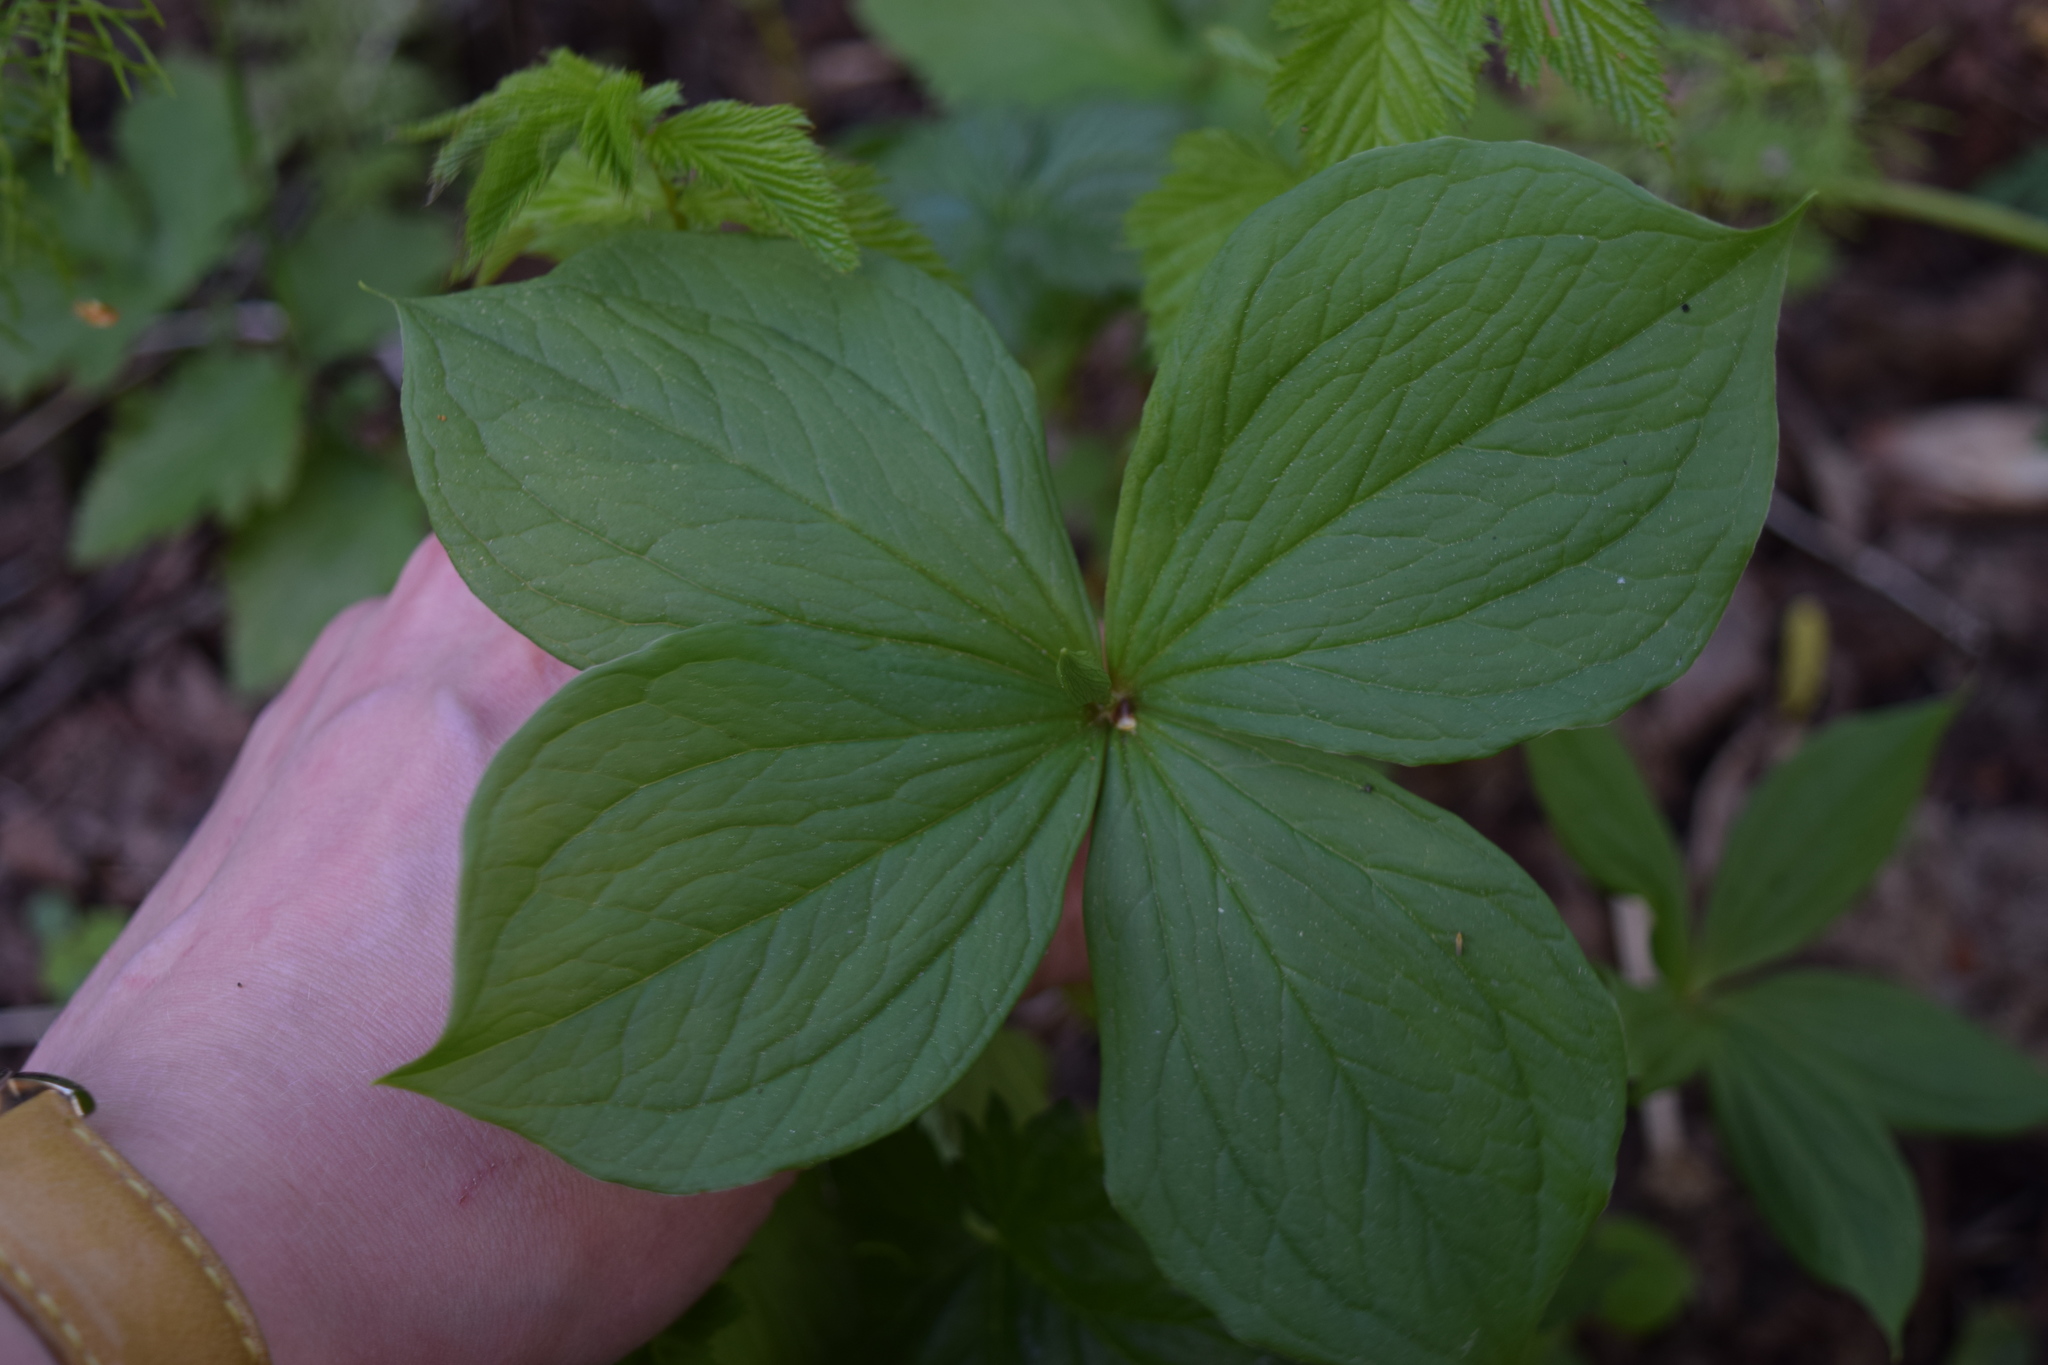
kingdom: Plantae
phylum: Tracheophyta
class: Liliopsida
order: Liliales
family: Melanthiaceae
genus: Paris
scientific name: Paris quadrifolia
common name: Herb-paris
